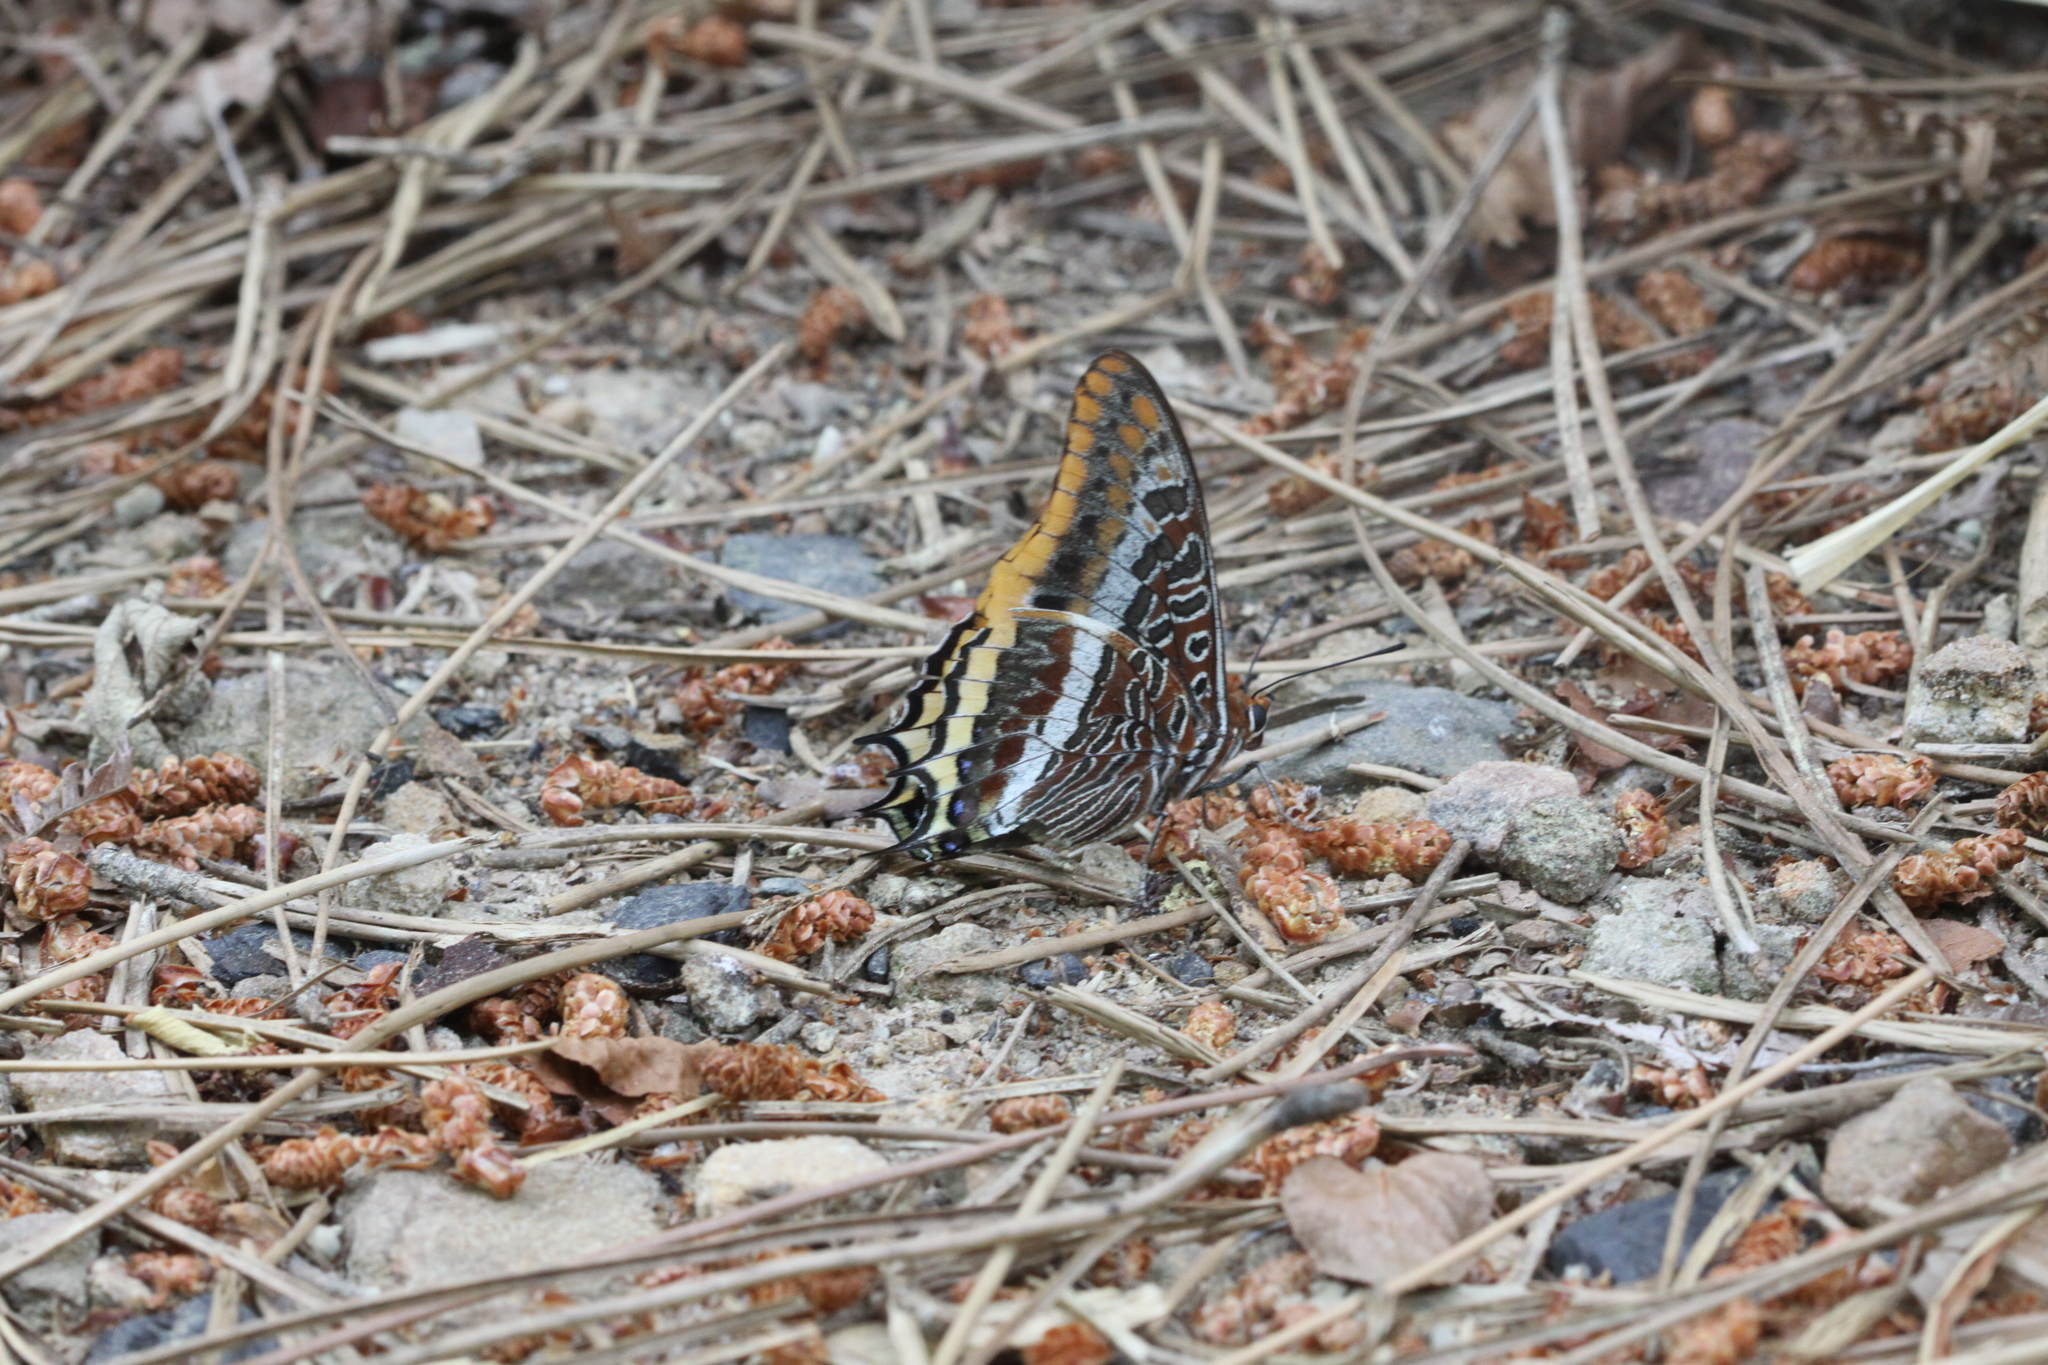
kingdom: Animalia
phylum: Arthropoda
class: Insecta
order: Lepidoptera
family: Nymphalidae
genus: Charaxes
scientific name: Charaxes jasius
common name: Two tailed pasha
